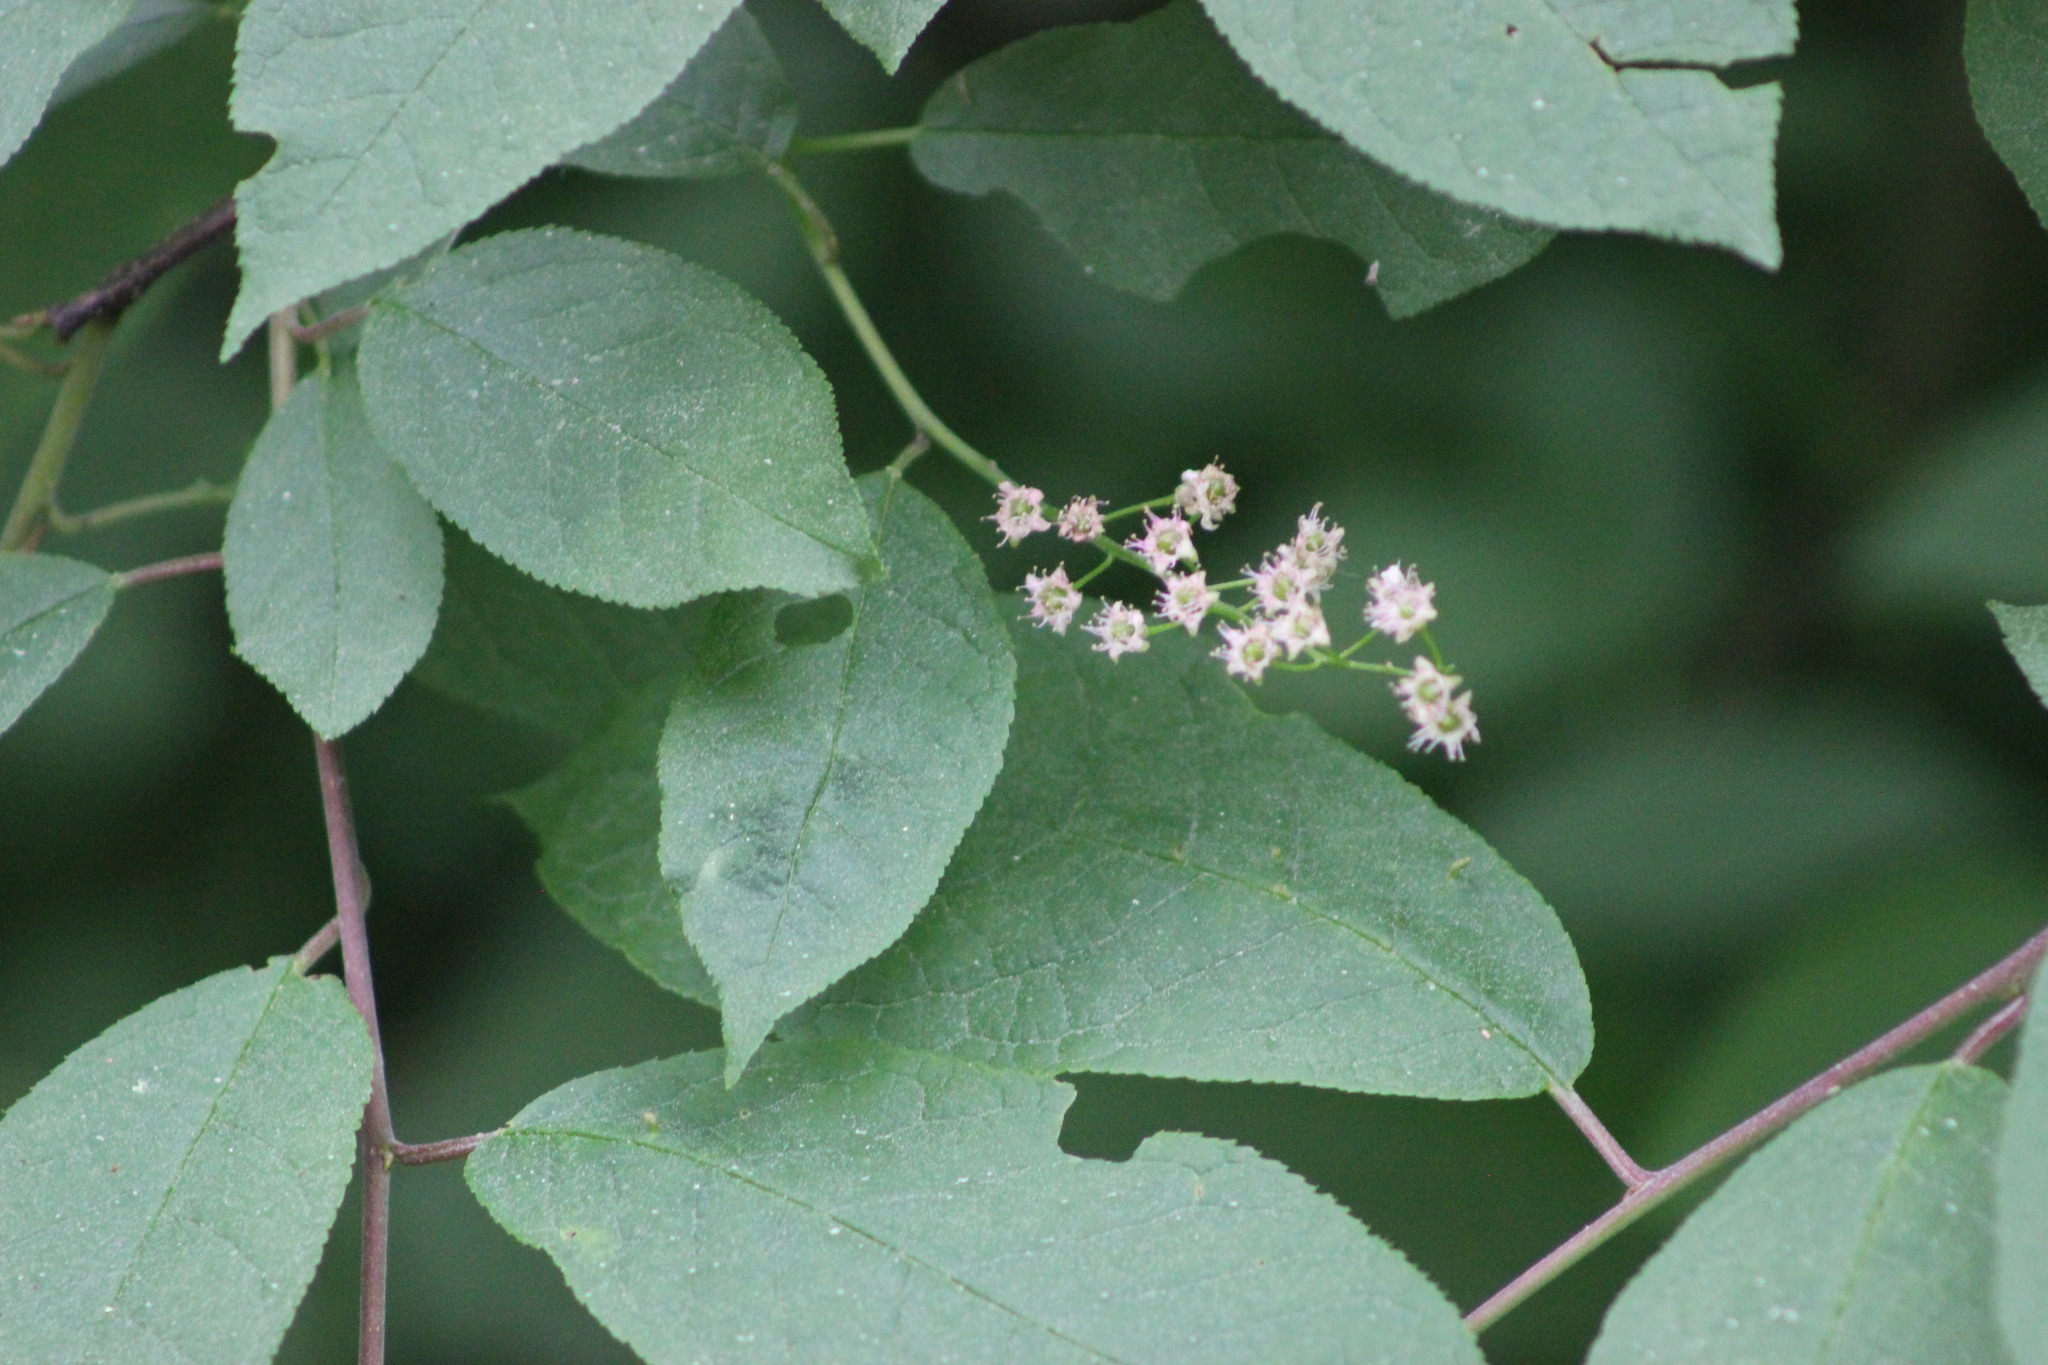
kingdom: Plantae
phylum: Tracheophyta
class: Magnoliopsida
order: Rosales
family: Rosaceae
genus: Prunus
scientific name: Prunus padus
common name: Bird cherry
